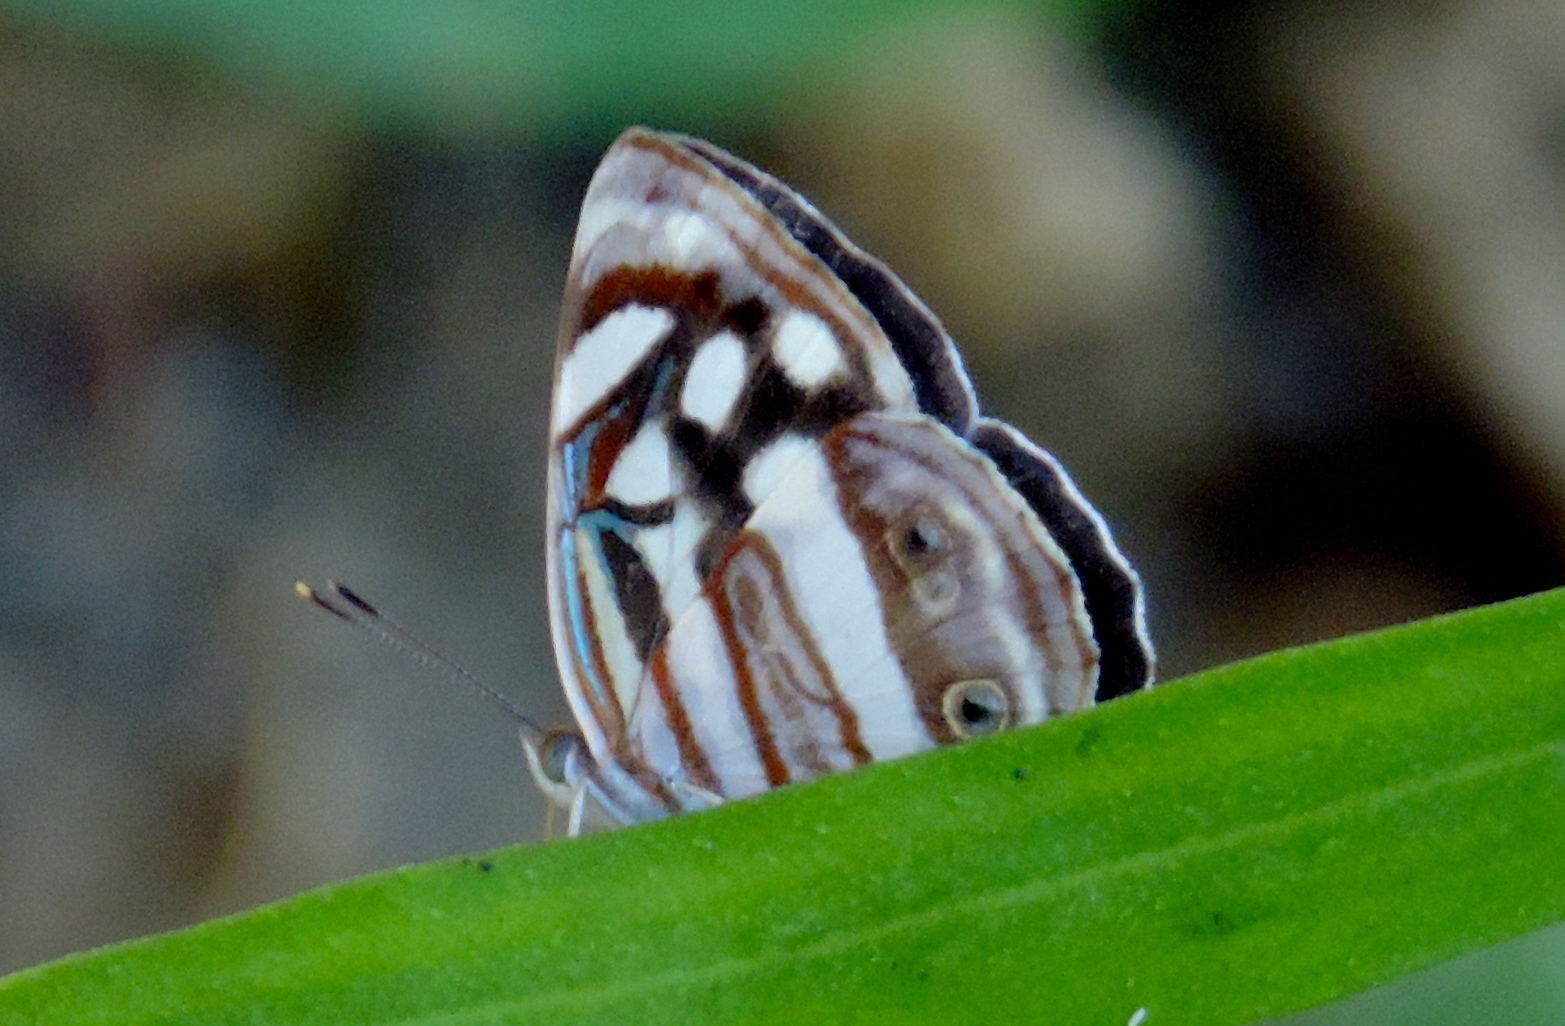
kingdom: Animalia
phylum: Arthropoda
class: Insecta
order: Lepidoptera
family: Nymphalidae
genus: Dynamine
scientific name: Dynamine mylitta
